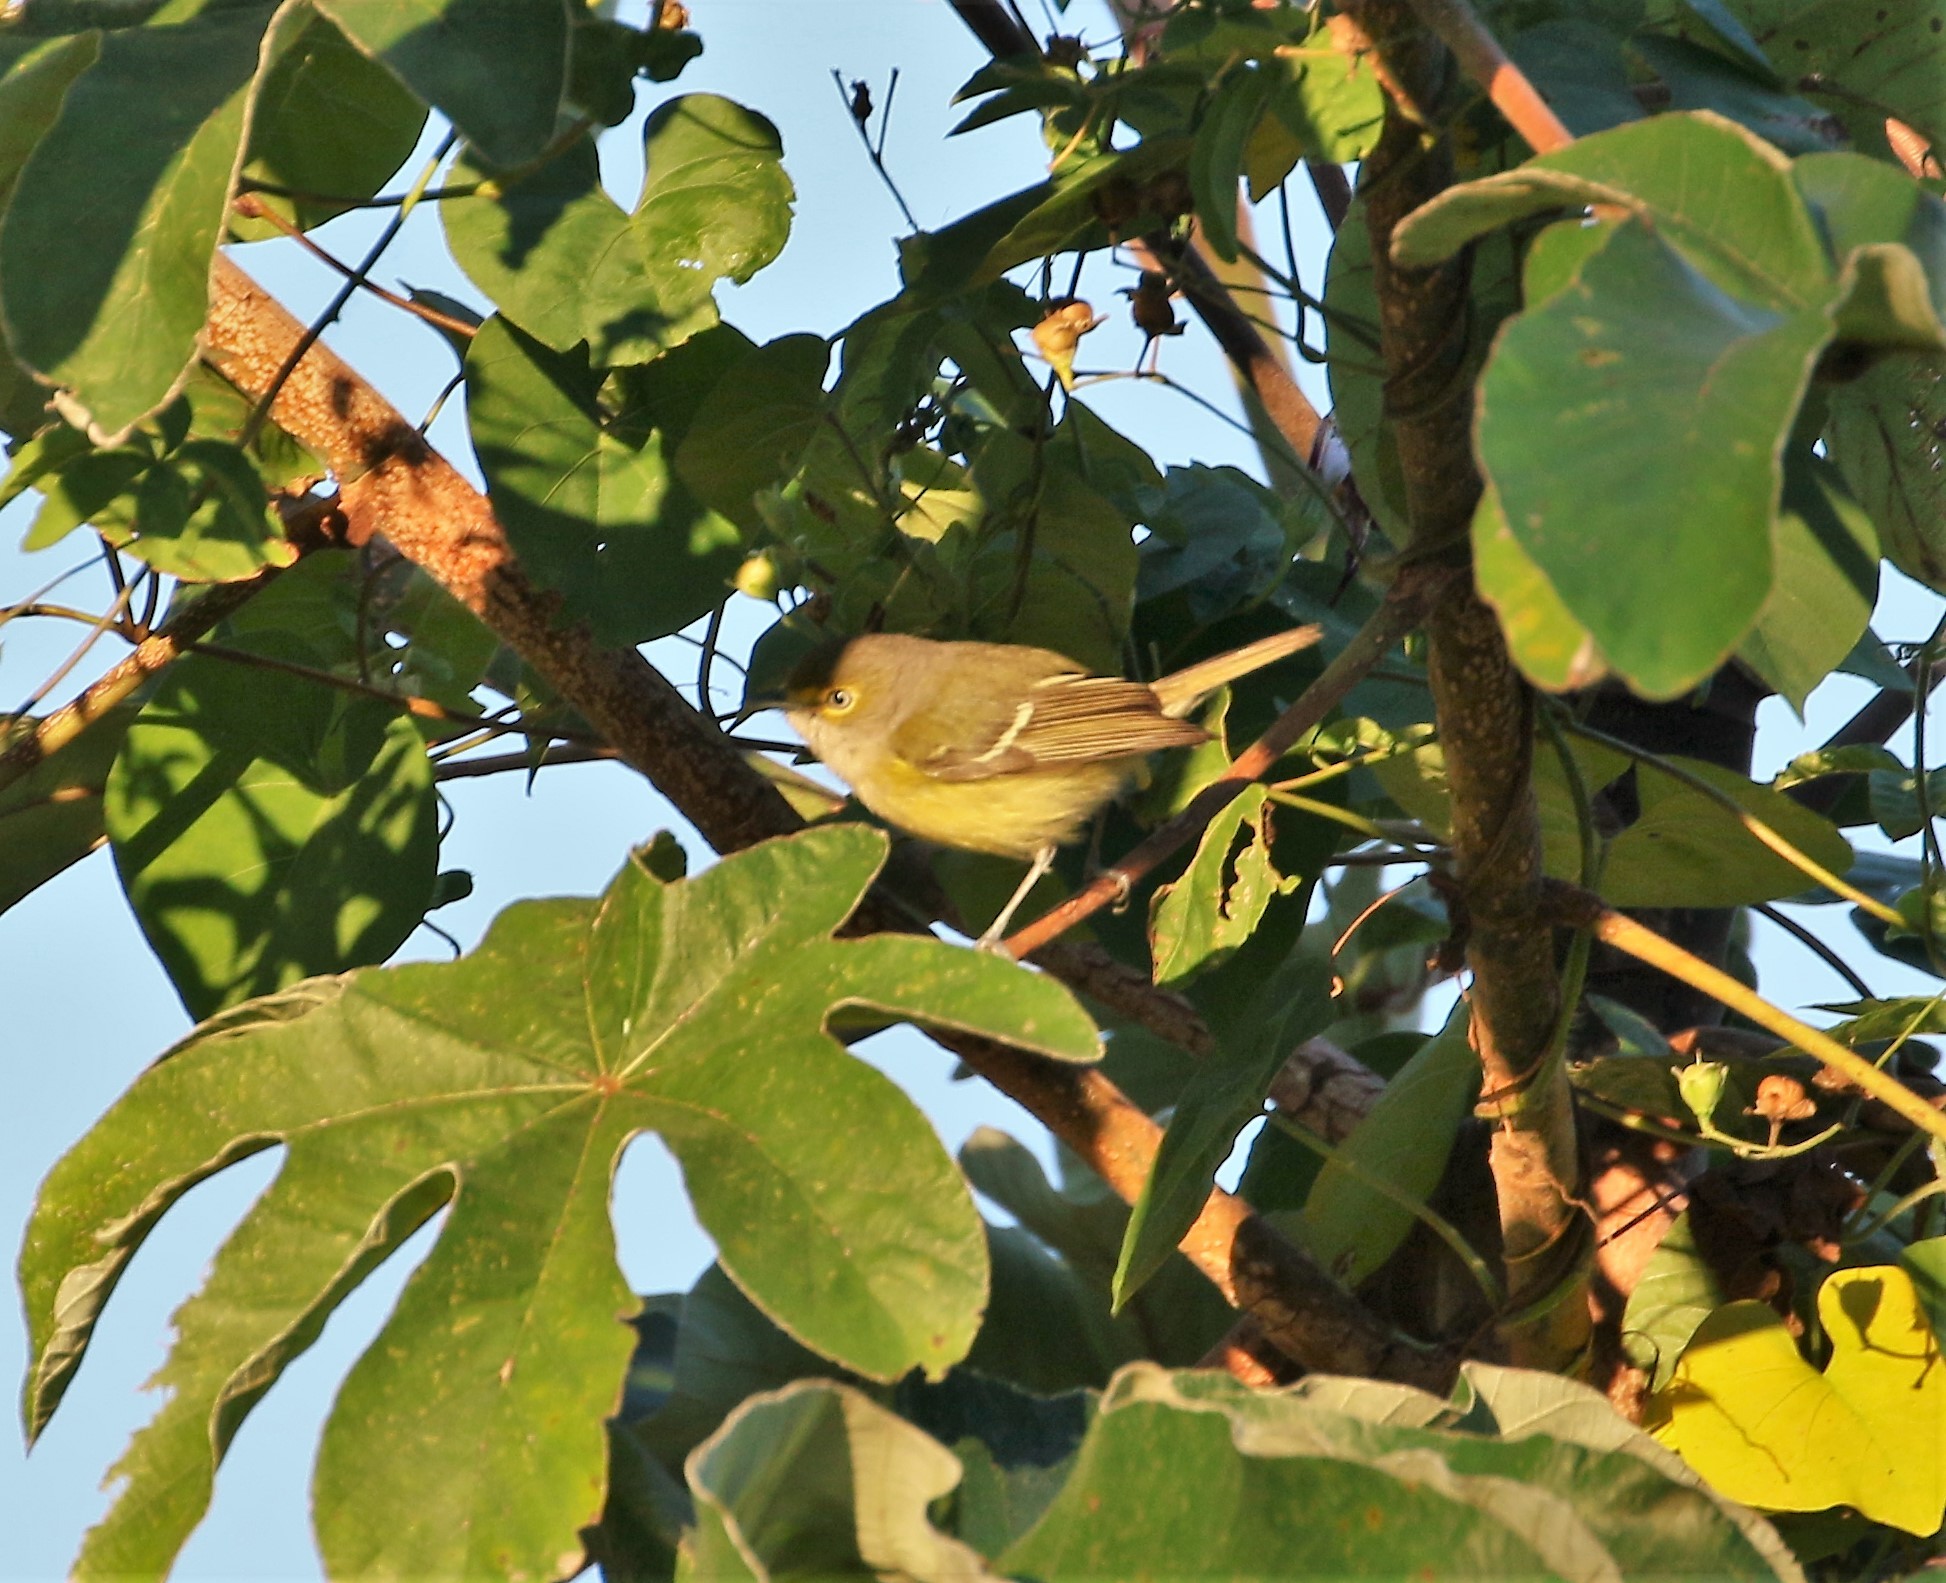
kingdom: Animalia
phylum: Chordata
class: Aves
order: Passeriformes
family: Vireonidae
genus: Vireo
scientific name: Vireo griseus
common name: White-eyed vireo
